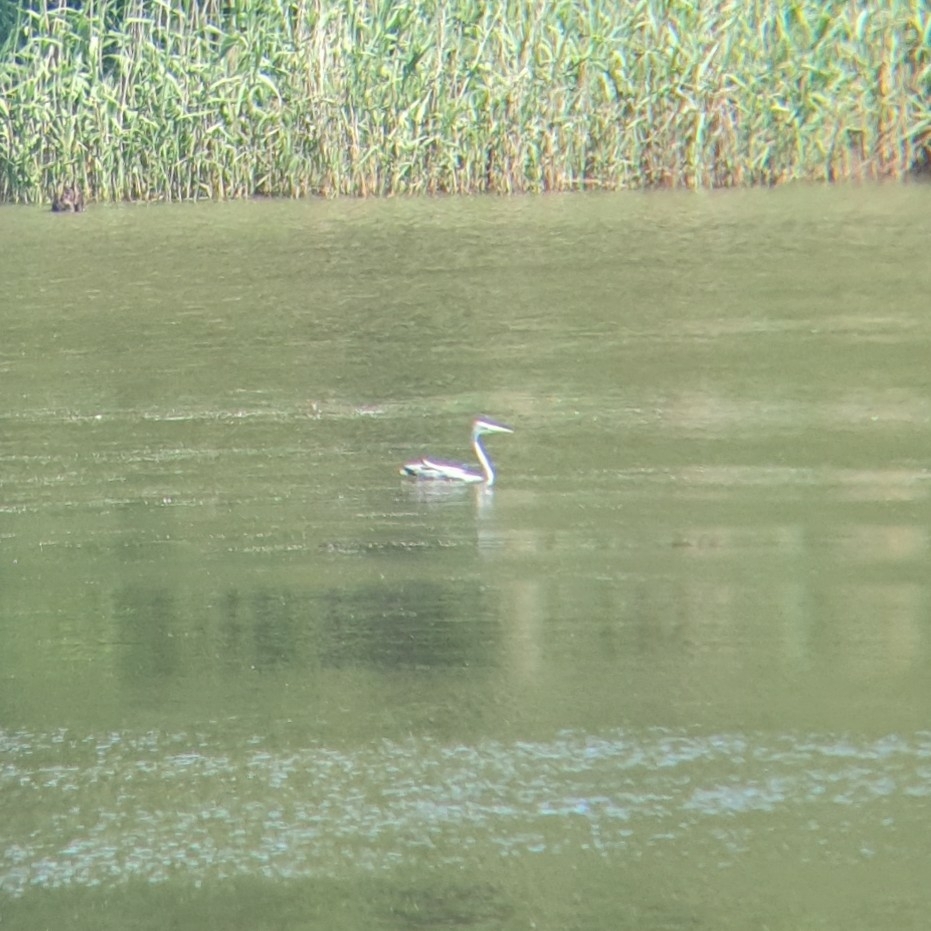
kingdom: Animalia
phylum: Chordata
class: Aves
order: Pelecaniformes
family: Ardeidae
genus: Ardea
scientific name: Ardea cinerea
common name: Grey heron
